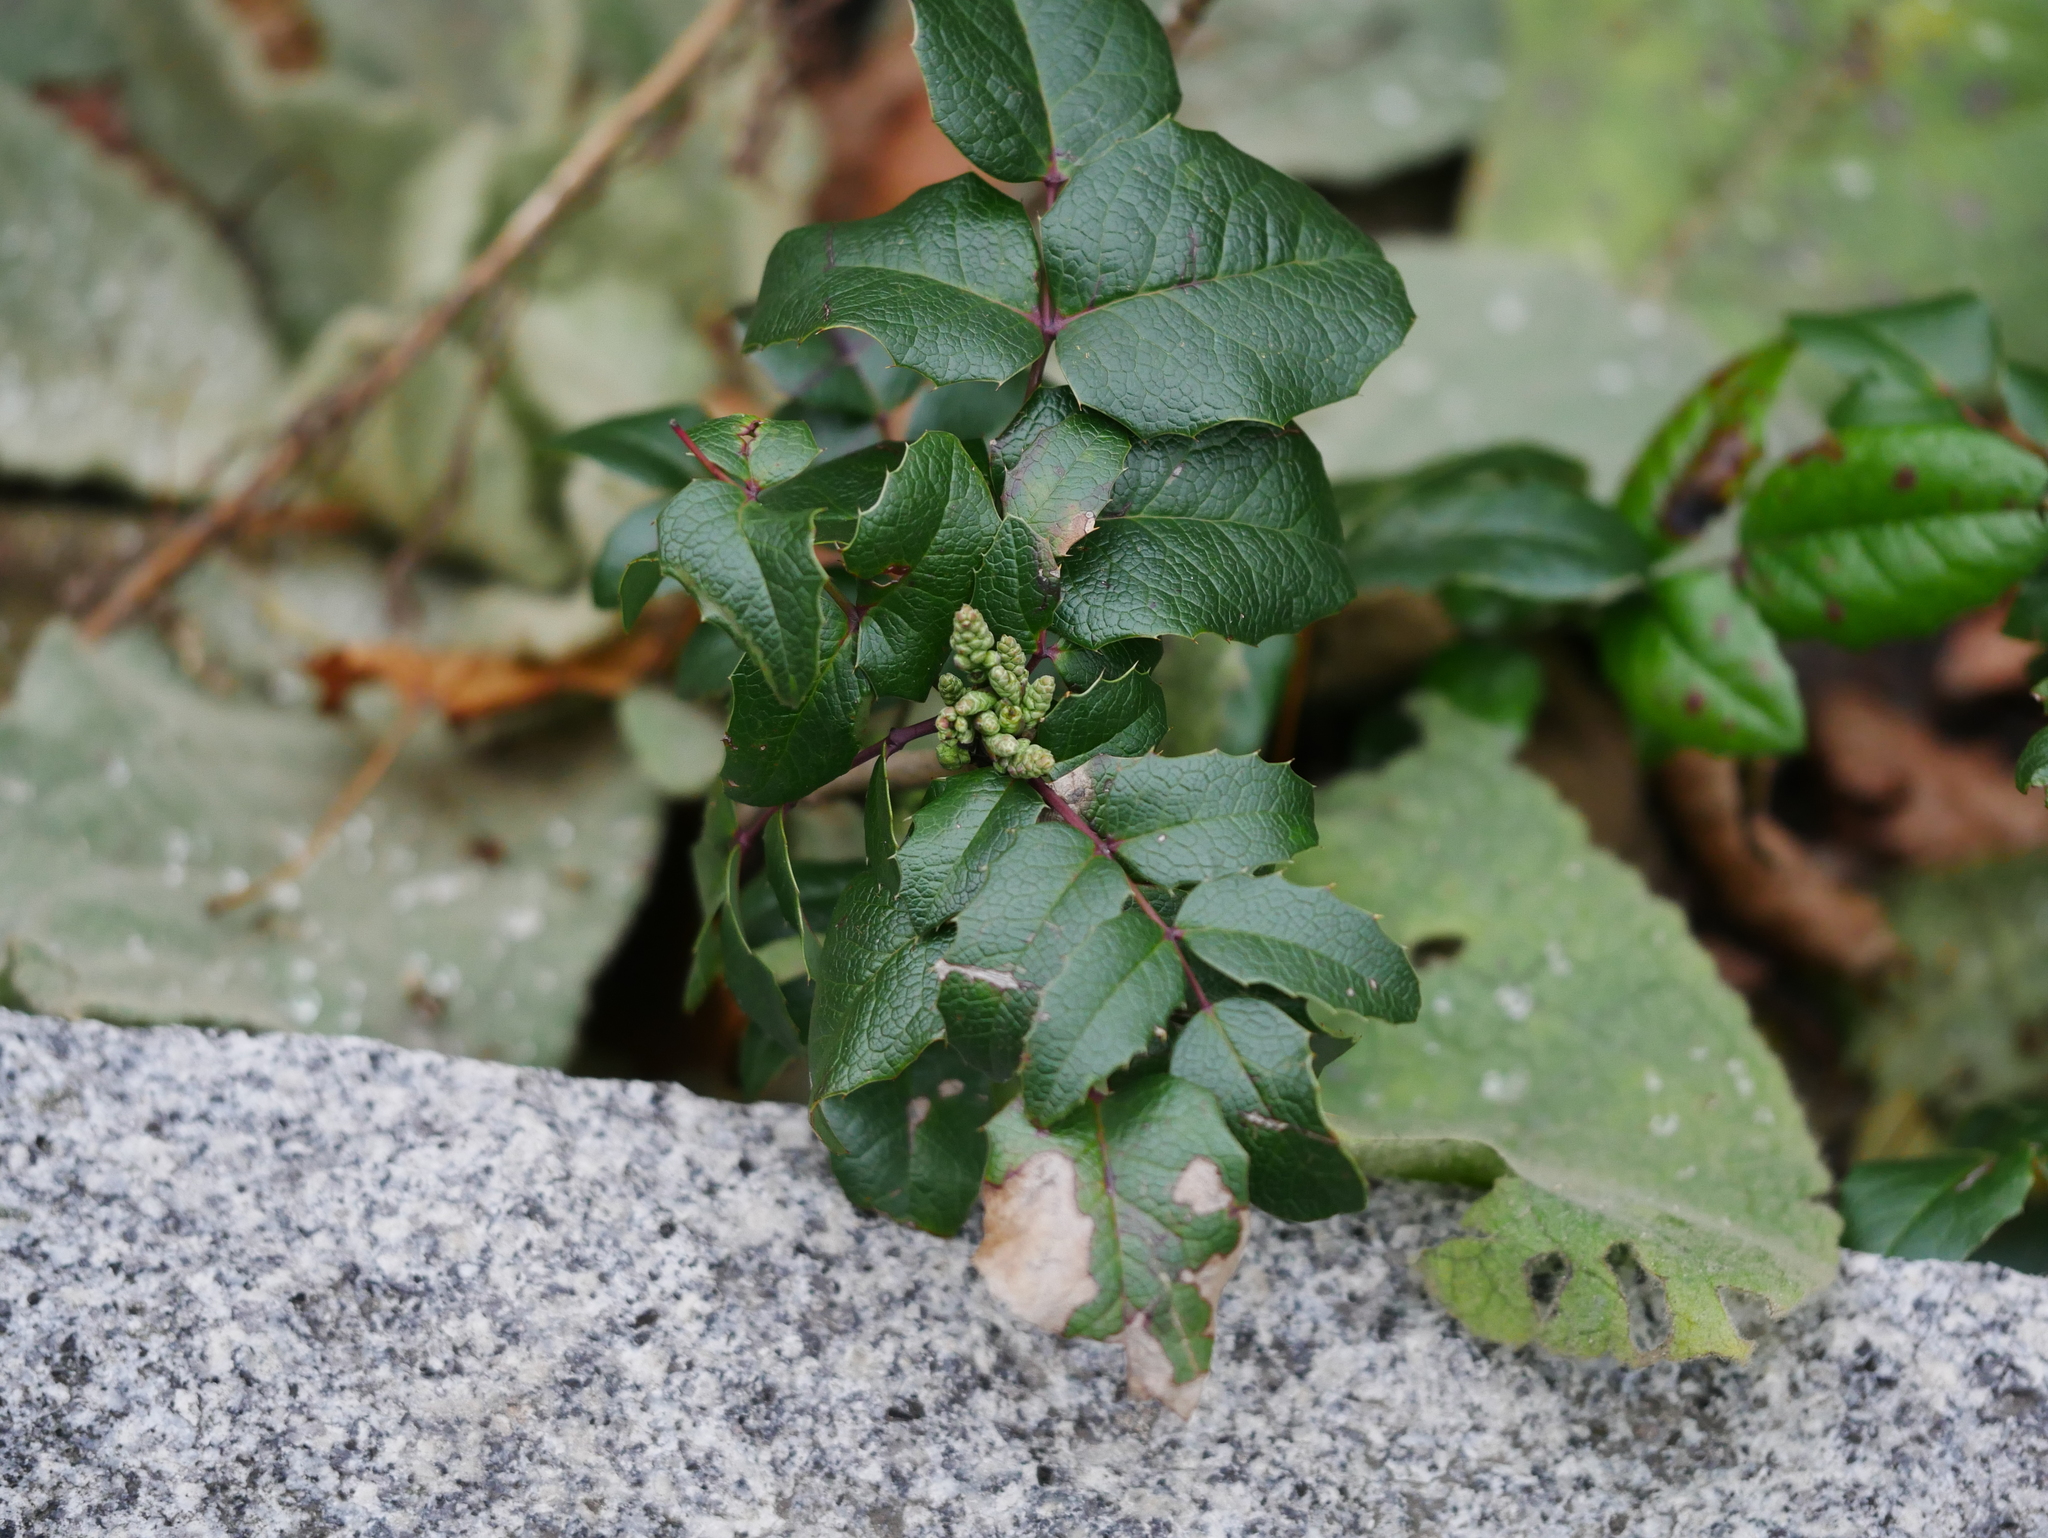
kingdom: Plantae
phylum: Tracheophyta
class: Magnoliopsida
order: Ranunculales
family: Berberidaceae
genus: Mahonia
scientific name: Mahonia aquifolium
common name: Oregon-grape
